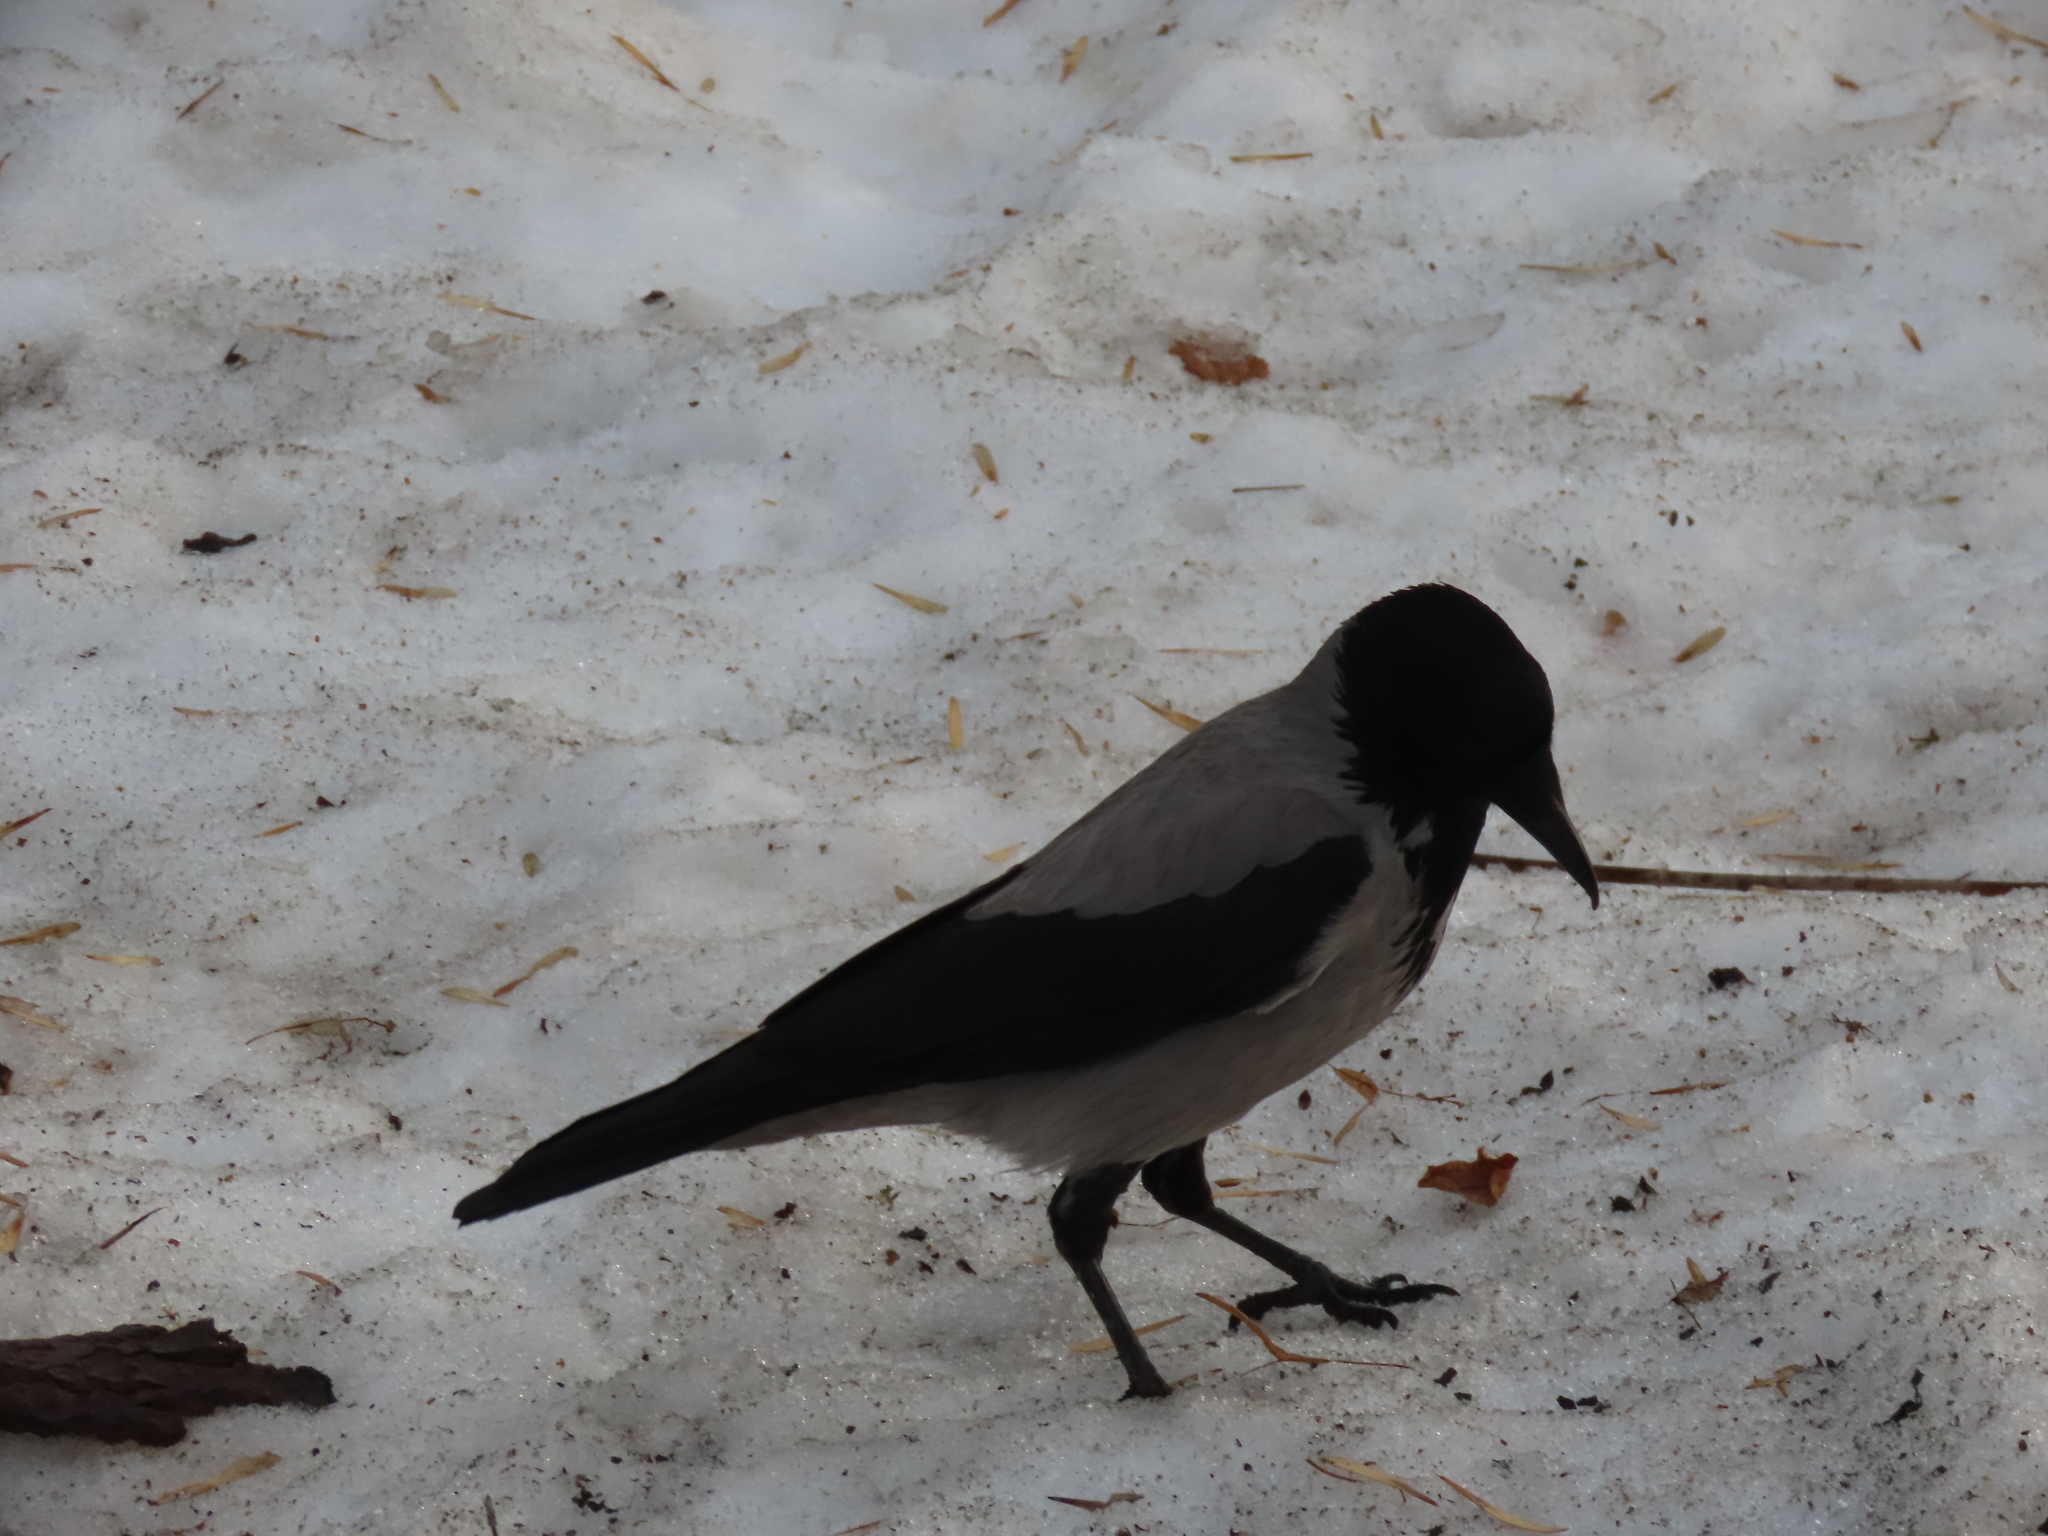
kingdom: Animalia
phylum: Chordata
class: Aves
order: Passeriformes
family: Corvidae
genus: Corvus
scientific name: Corvus cornix
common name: Hooded crow
